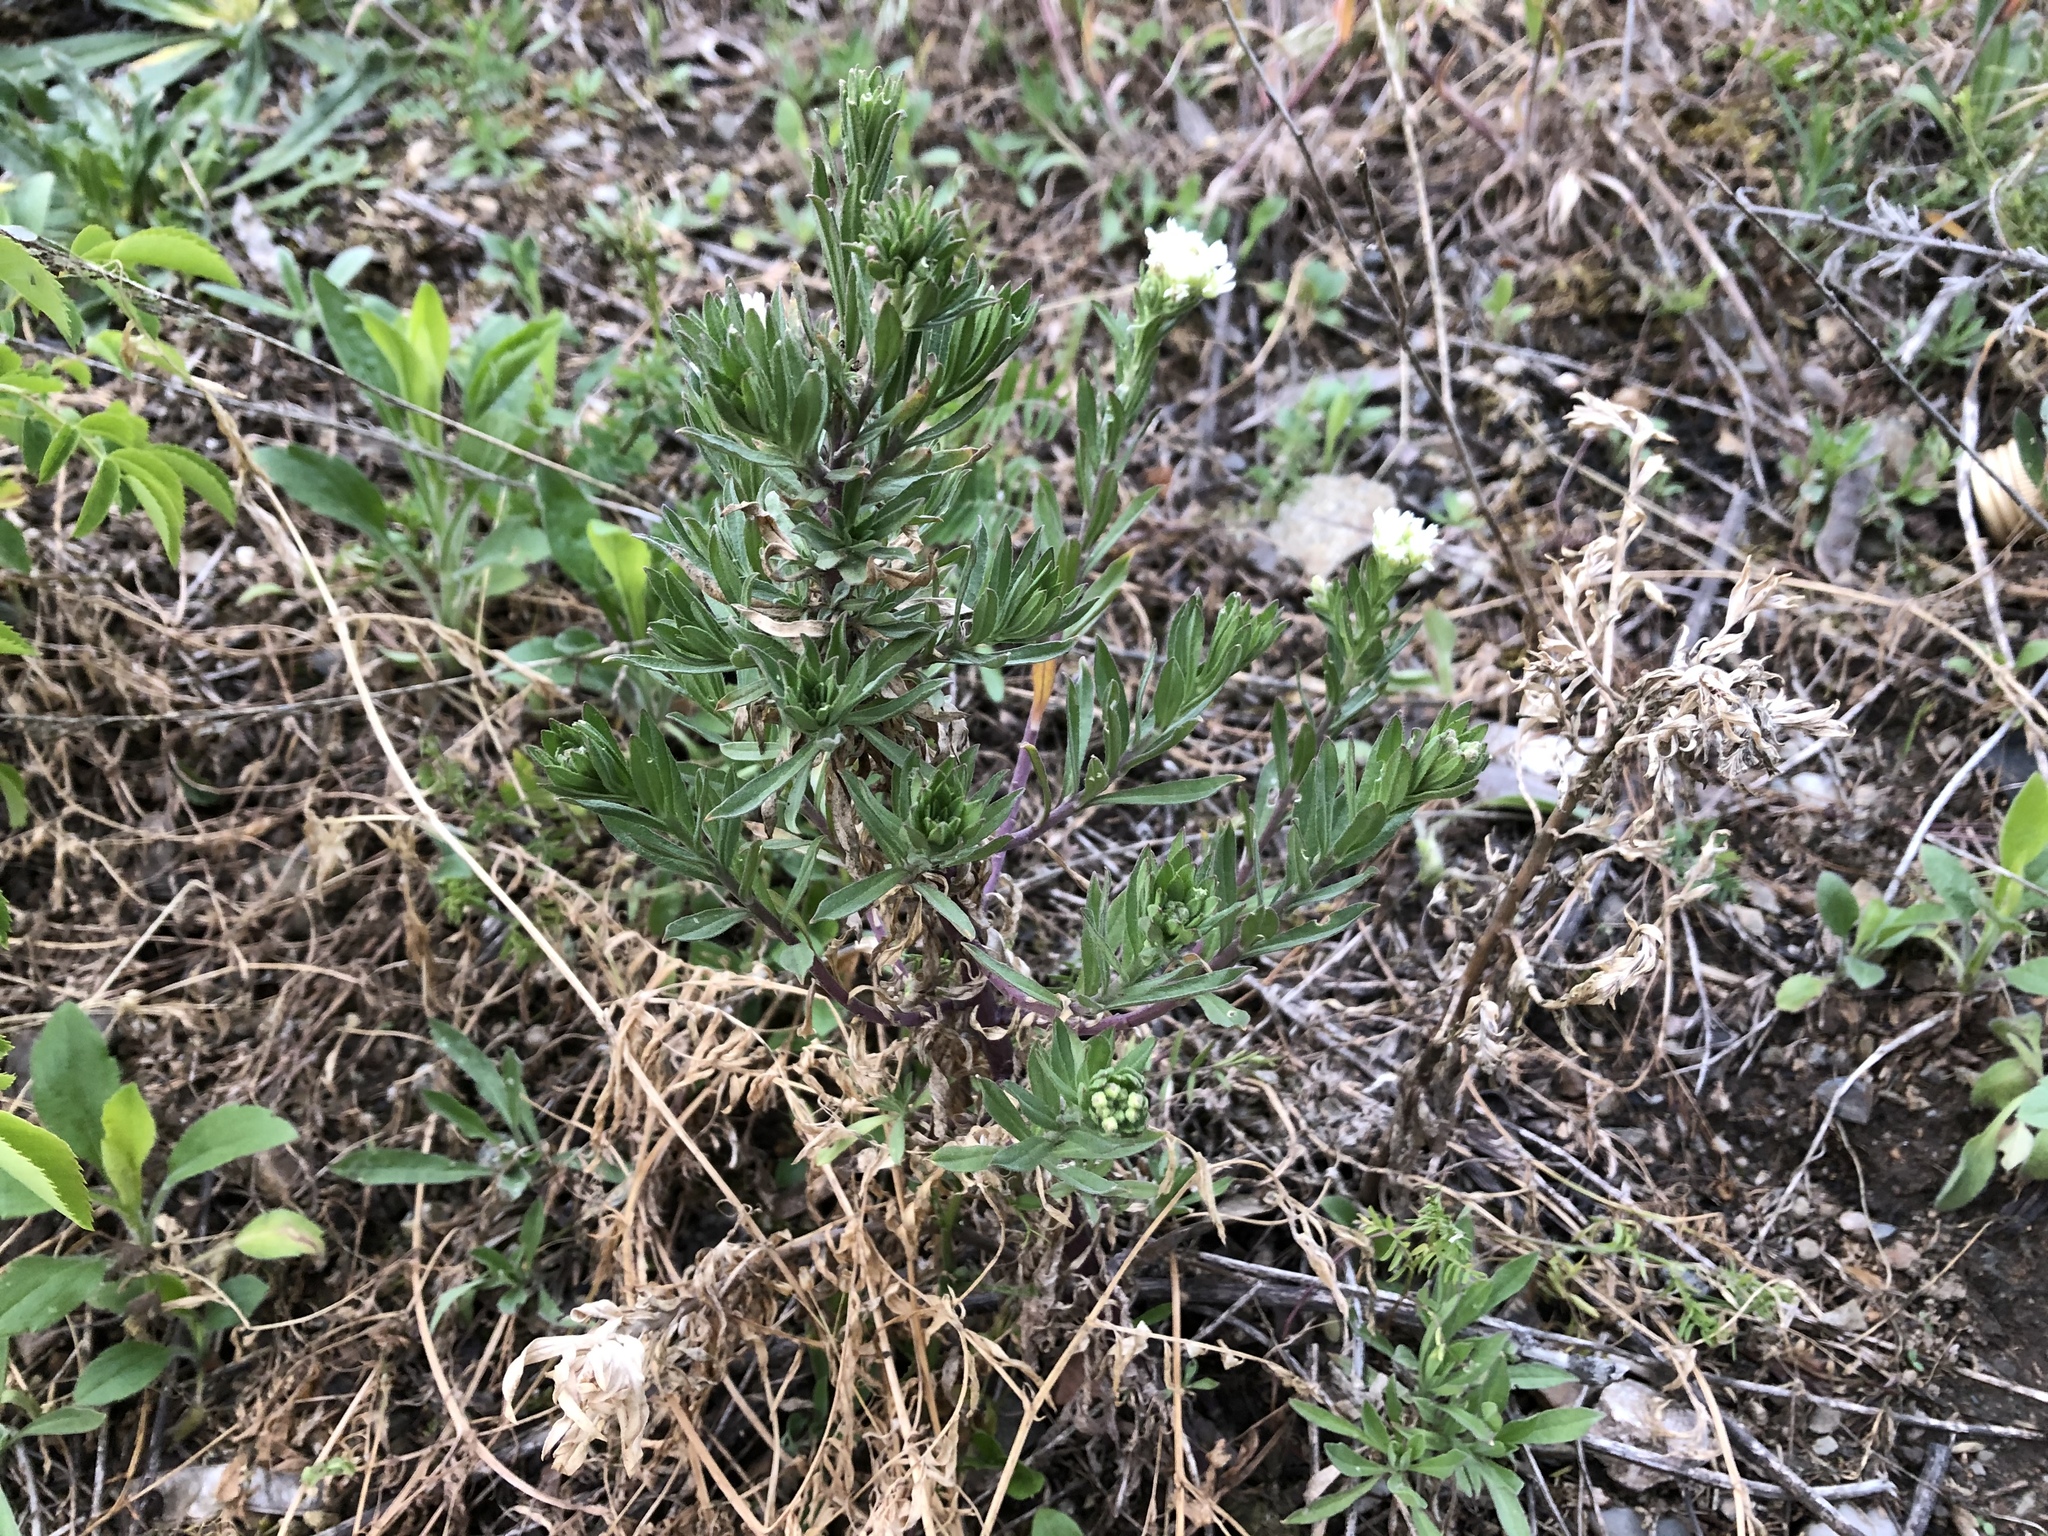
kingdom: Plantae
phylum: Tracheophyta
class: Magnoliopsida
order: Brassicales
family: Brassicaceae
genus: Berteroa
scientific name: Berteroa incana
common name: Hoary alison
